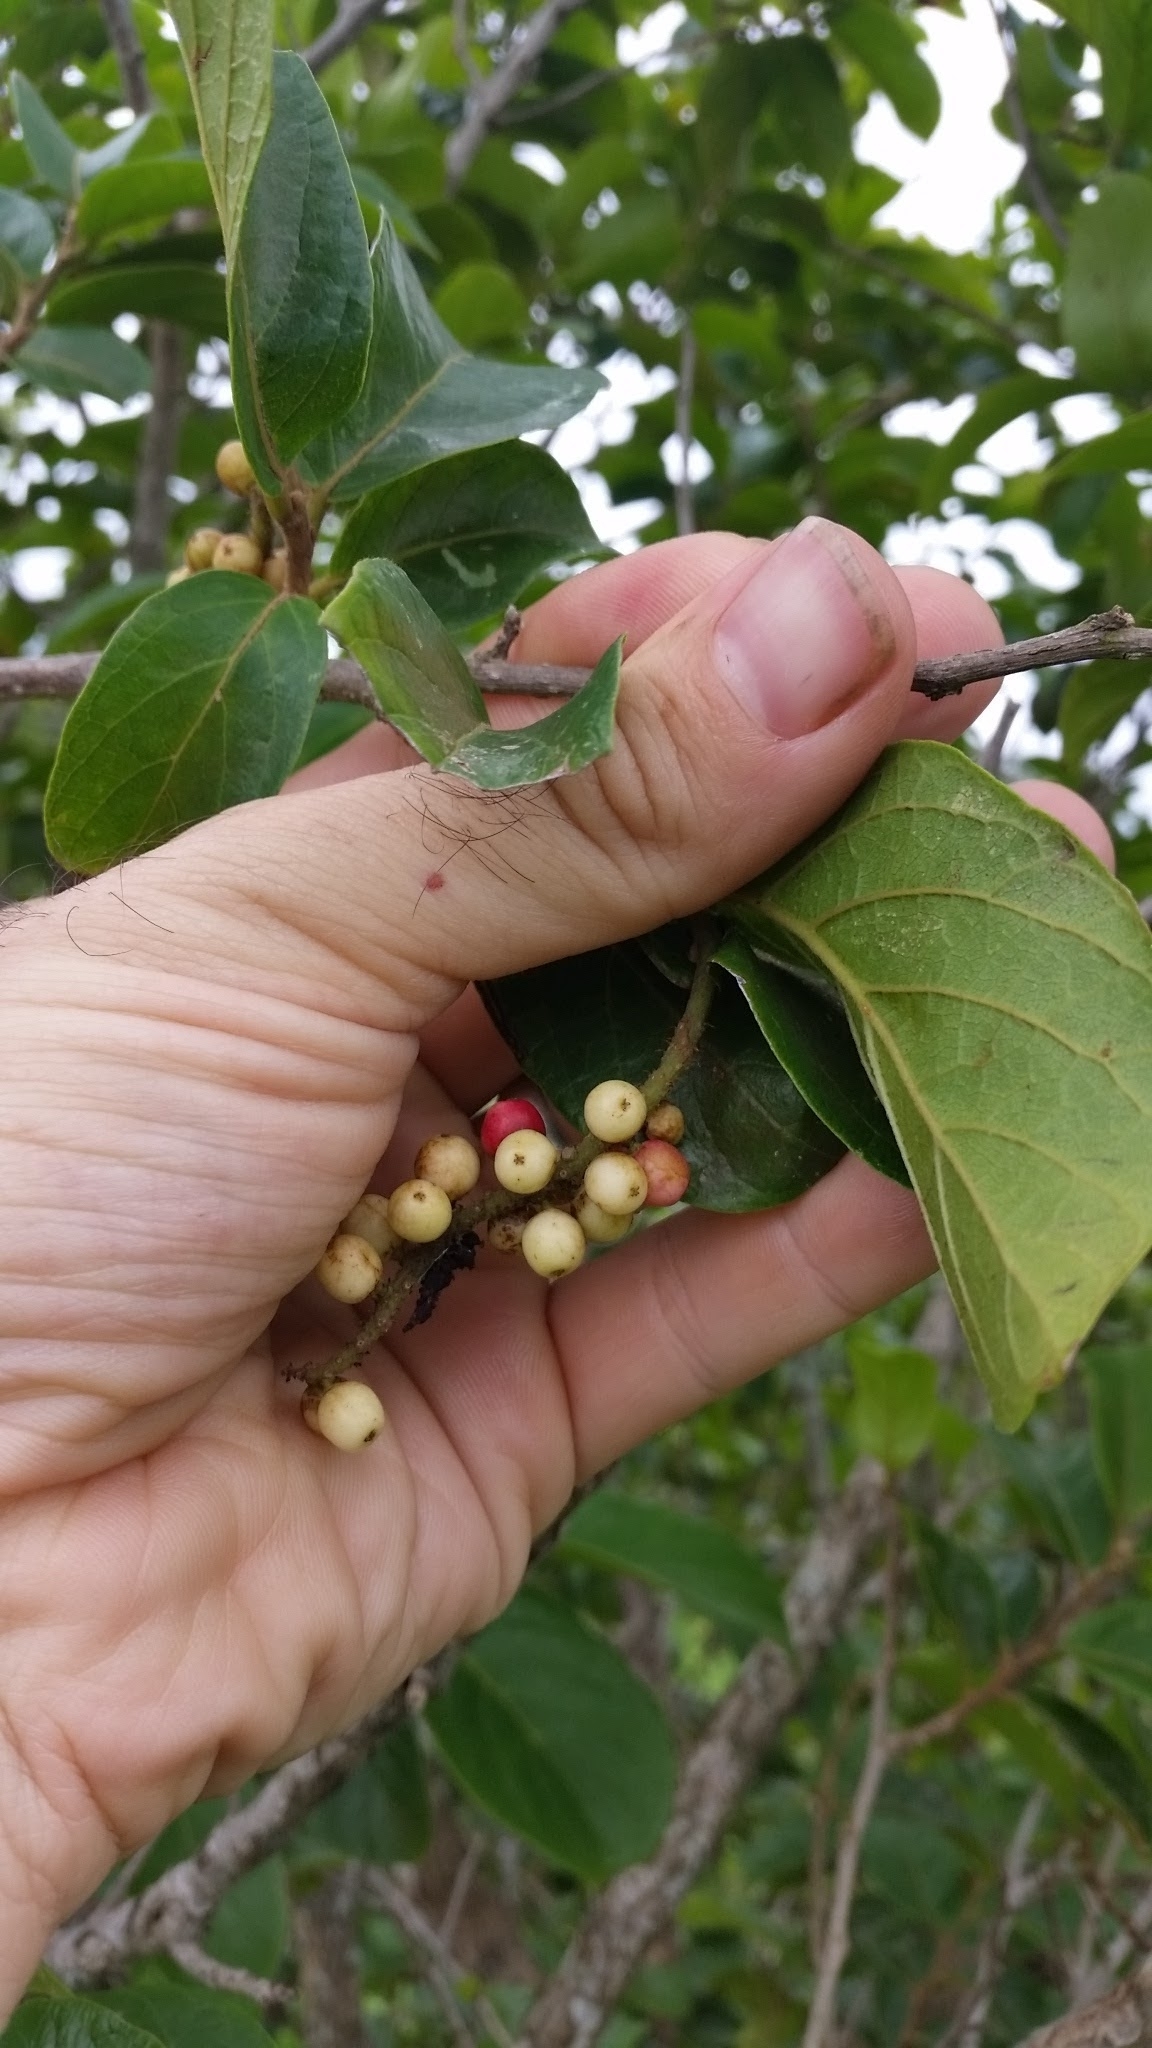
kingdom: Plantae
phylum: Tracheophyta
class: Magnoliopsida
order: Malpighiales
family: Phyllanthaceae
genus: Antidesma
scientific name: Antidesma venosum
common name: Tassel-berry
